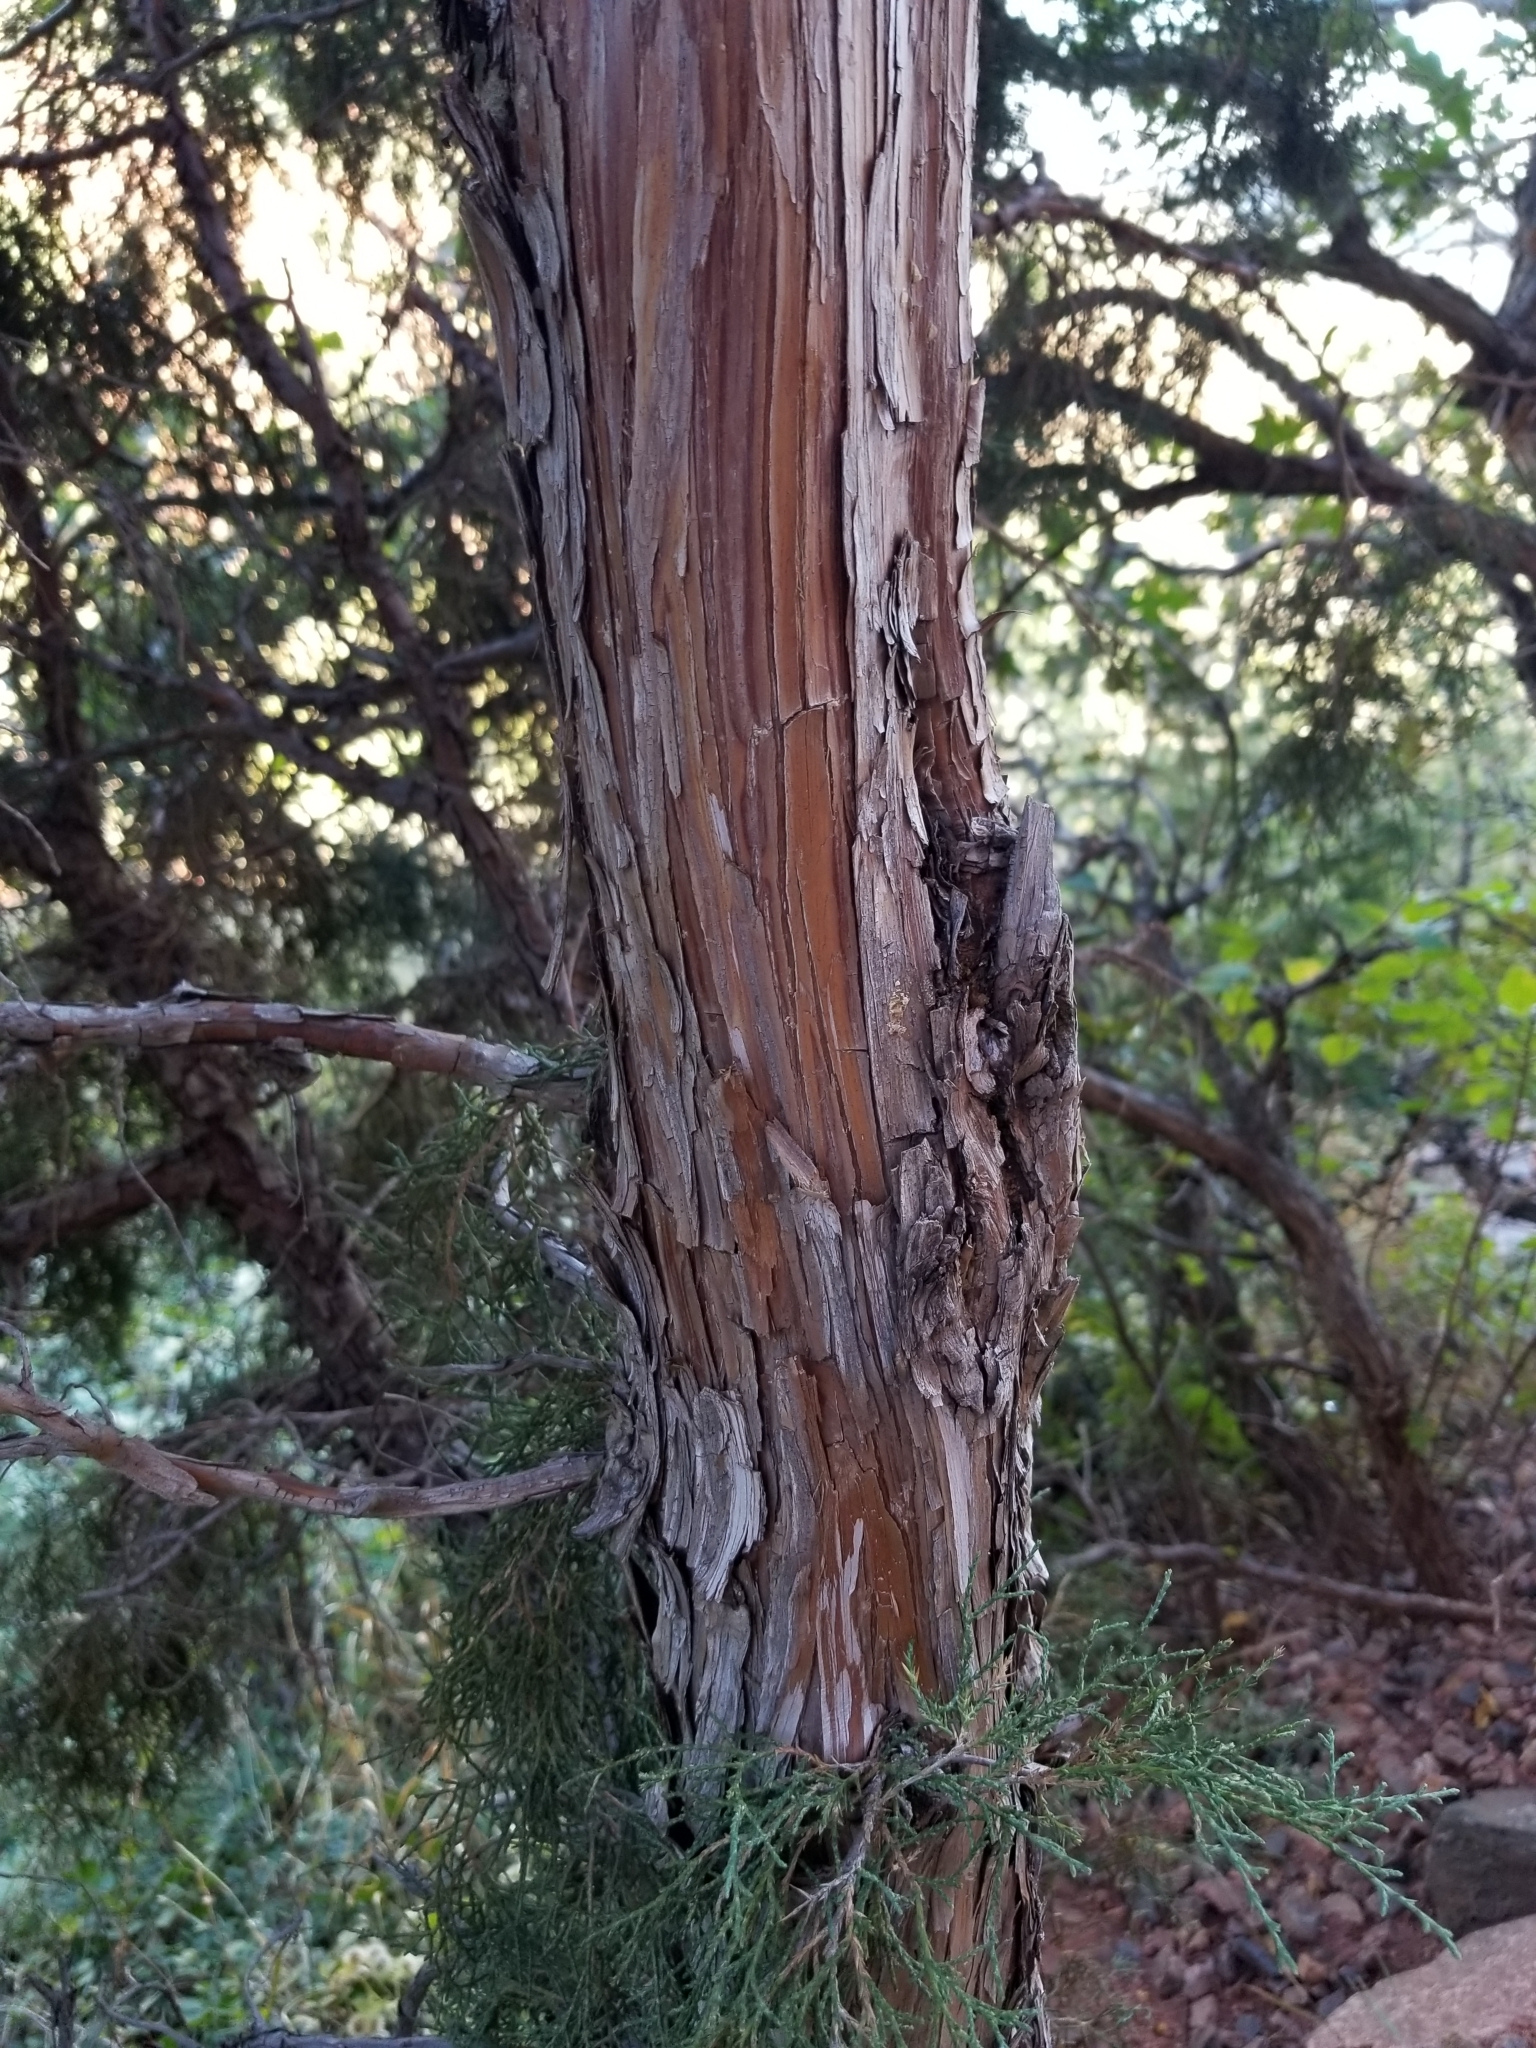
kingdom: Plantae
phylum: Tracheophyta
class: Pinopsida
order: Pinales
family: Cupressaceae
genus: Juniperus
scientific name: Juniperus scopulorum
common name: Rocky mountain juniper
